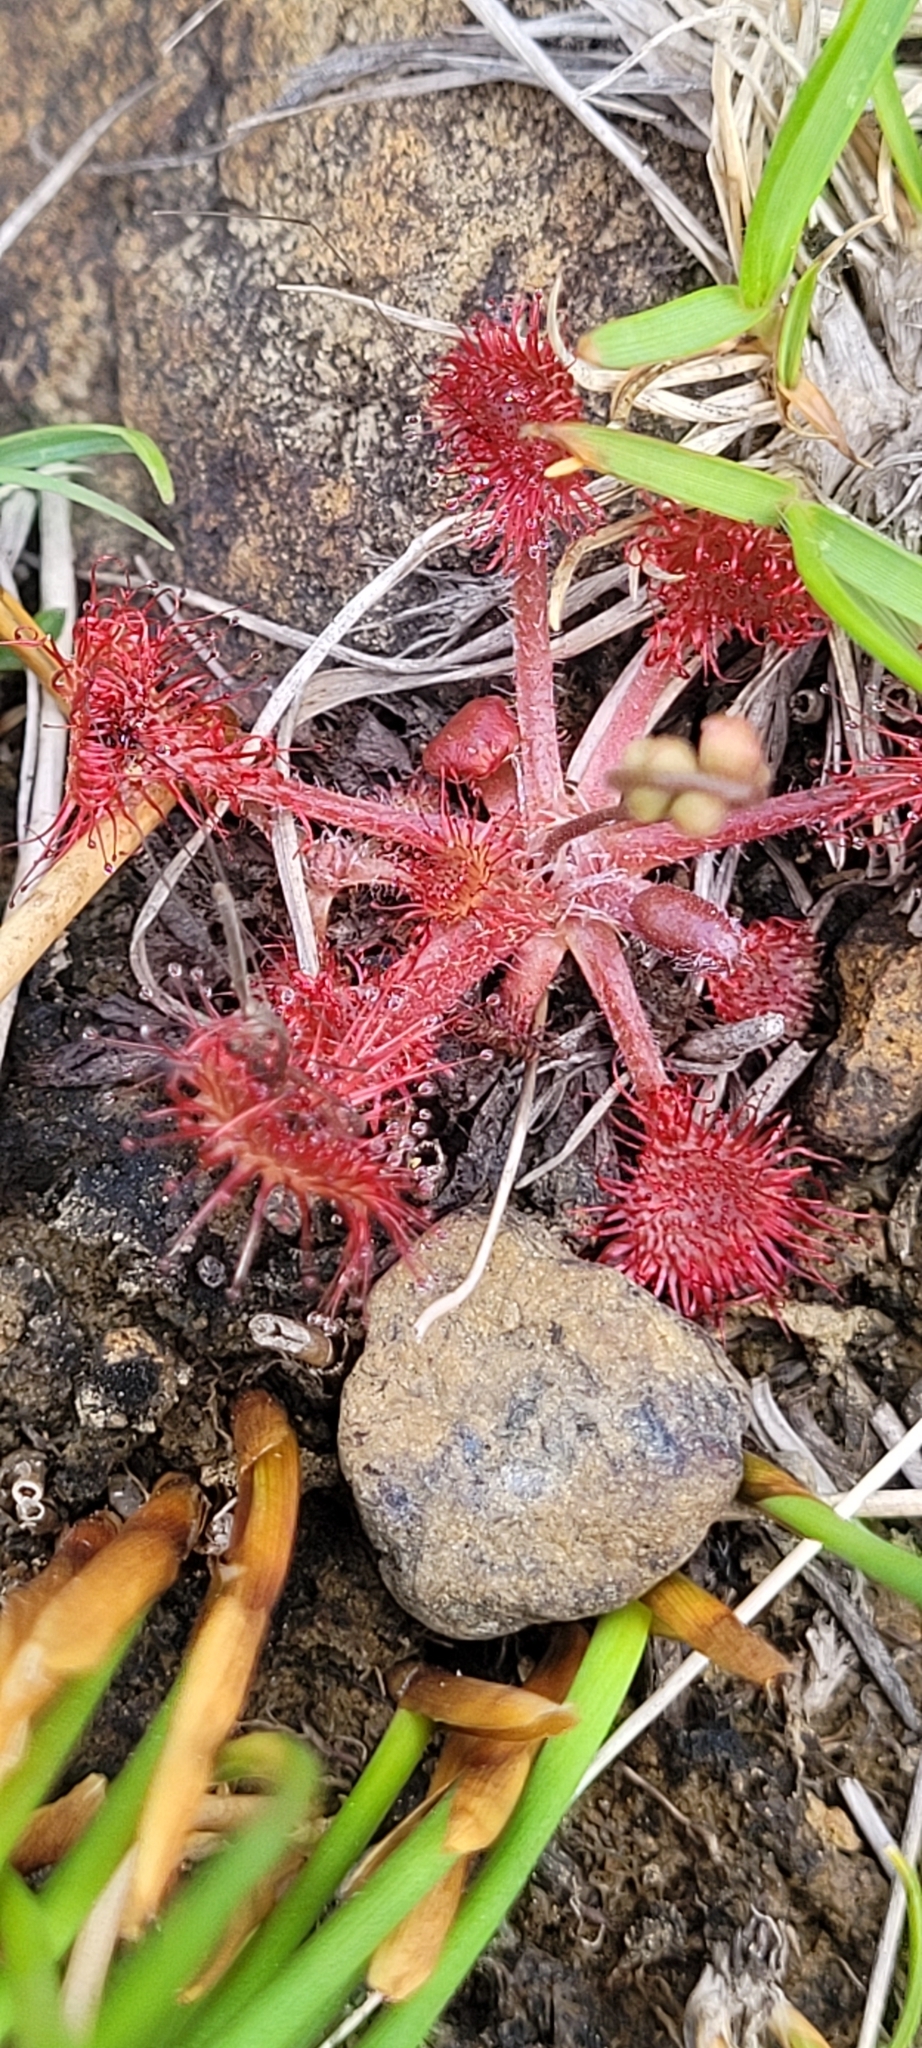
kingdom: Plantae
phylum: Tracheophyta
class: Magnoliopsida
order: Caryophyllales
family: Droseraceae
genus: Drosera
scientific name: Drosera rotundifolia
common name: Round-leaved sundew
